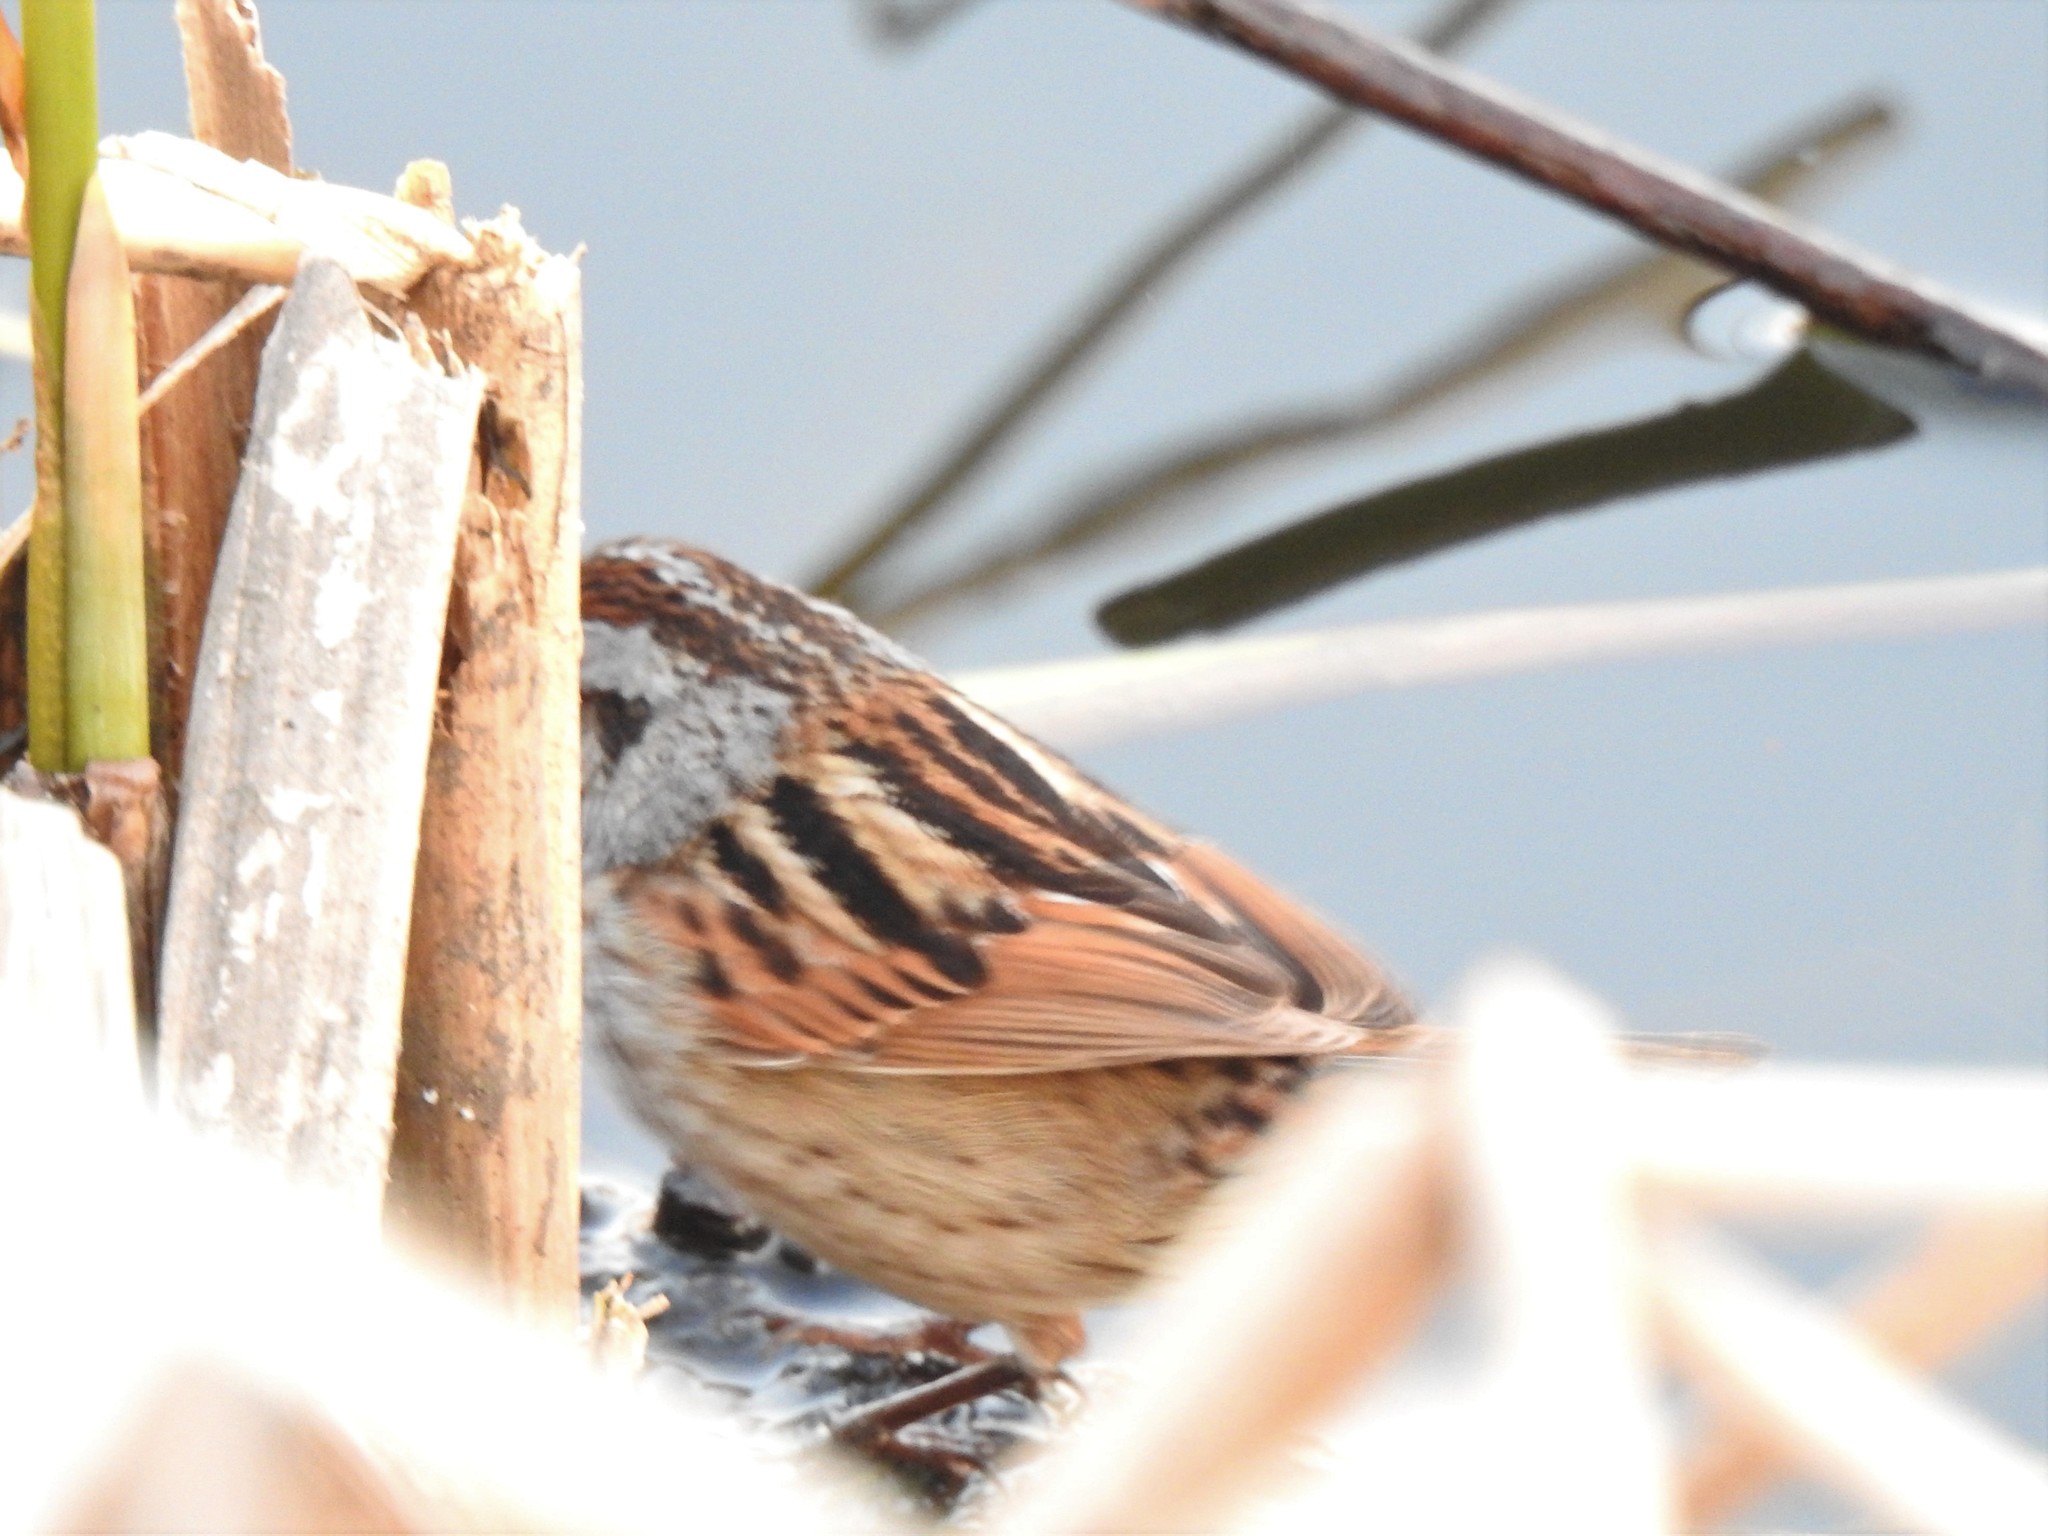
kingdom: Animalia
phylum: Chordata
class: Aves
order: Passeriformes
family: Passerellidae
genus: Melospiza
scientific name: Melospiza georgiana
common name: Swamp sparrow
